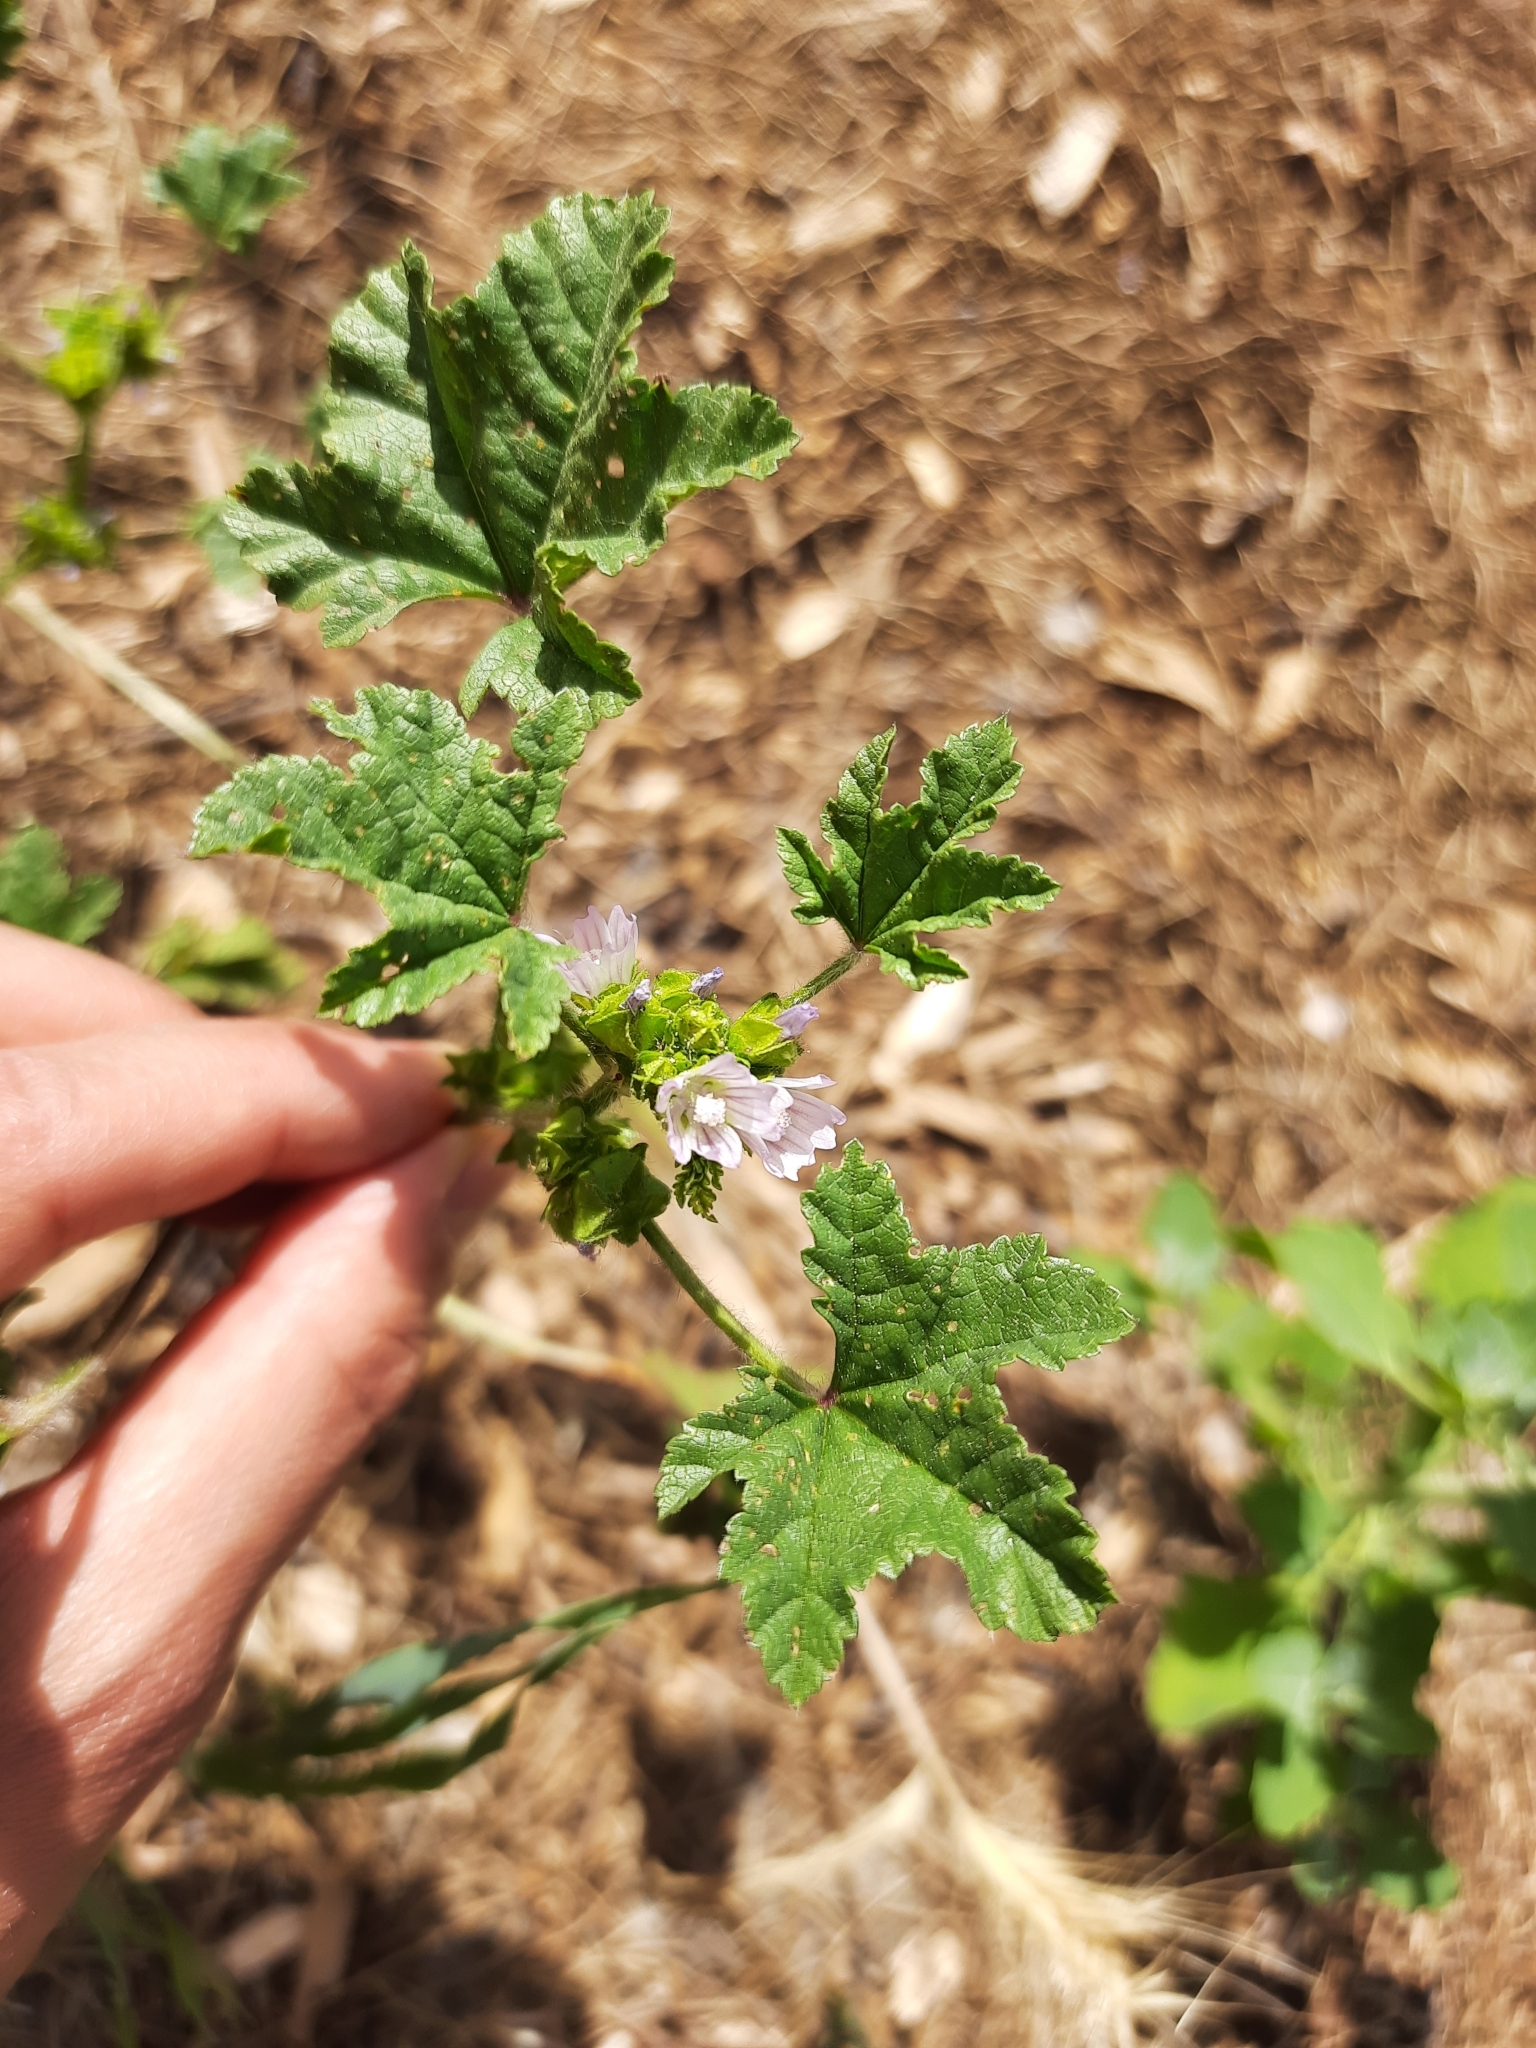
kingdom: Plantae
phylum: Tracheophyta
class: Magnoliopsida
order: Malvales
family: Malvaceae
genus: Malva
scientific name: Malva nicaeensis
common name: French mallow
